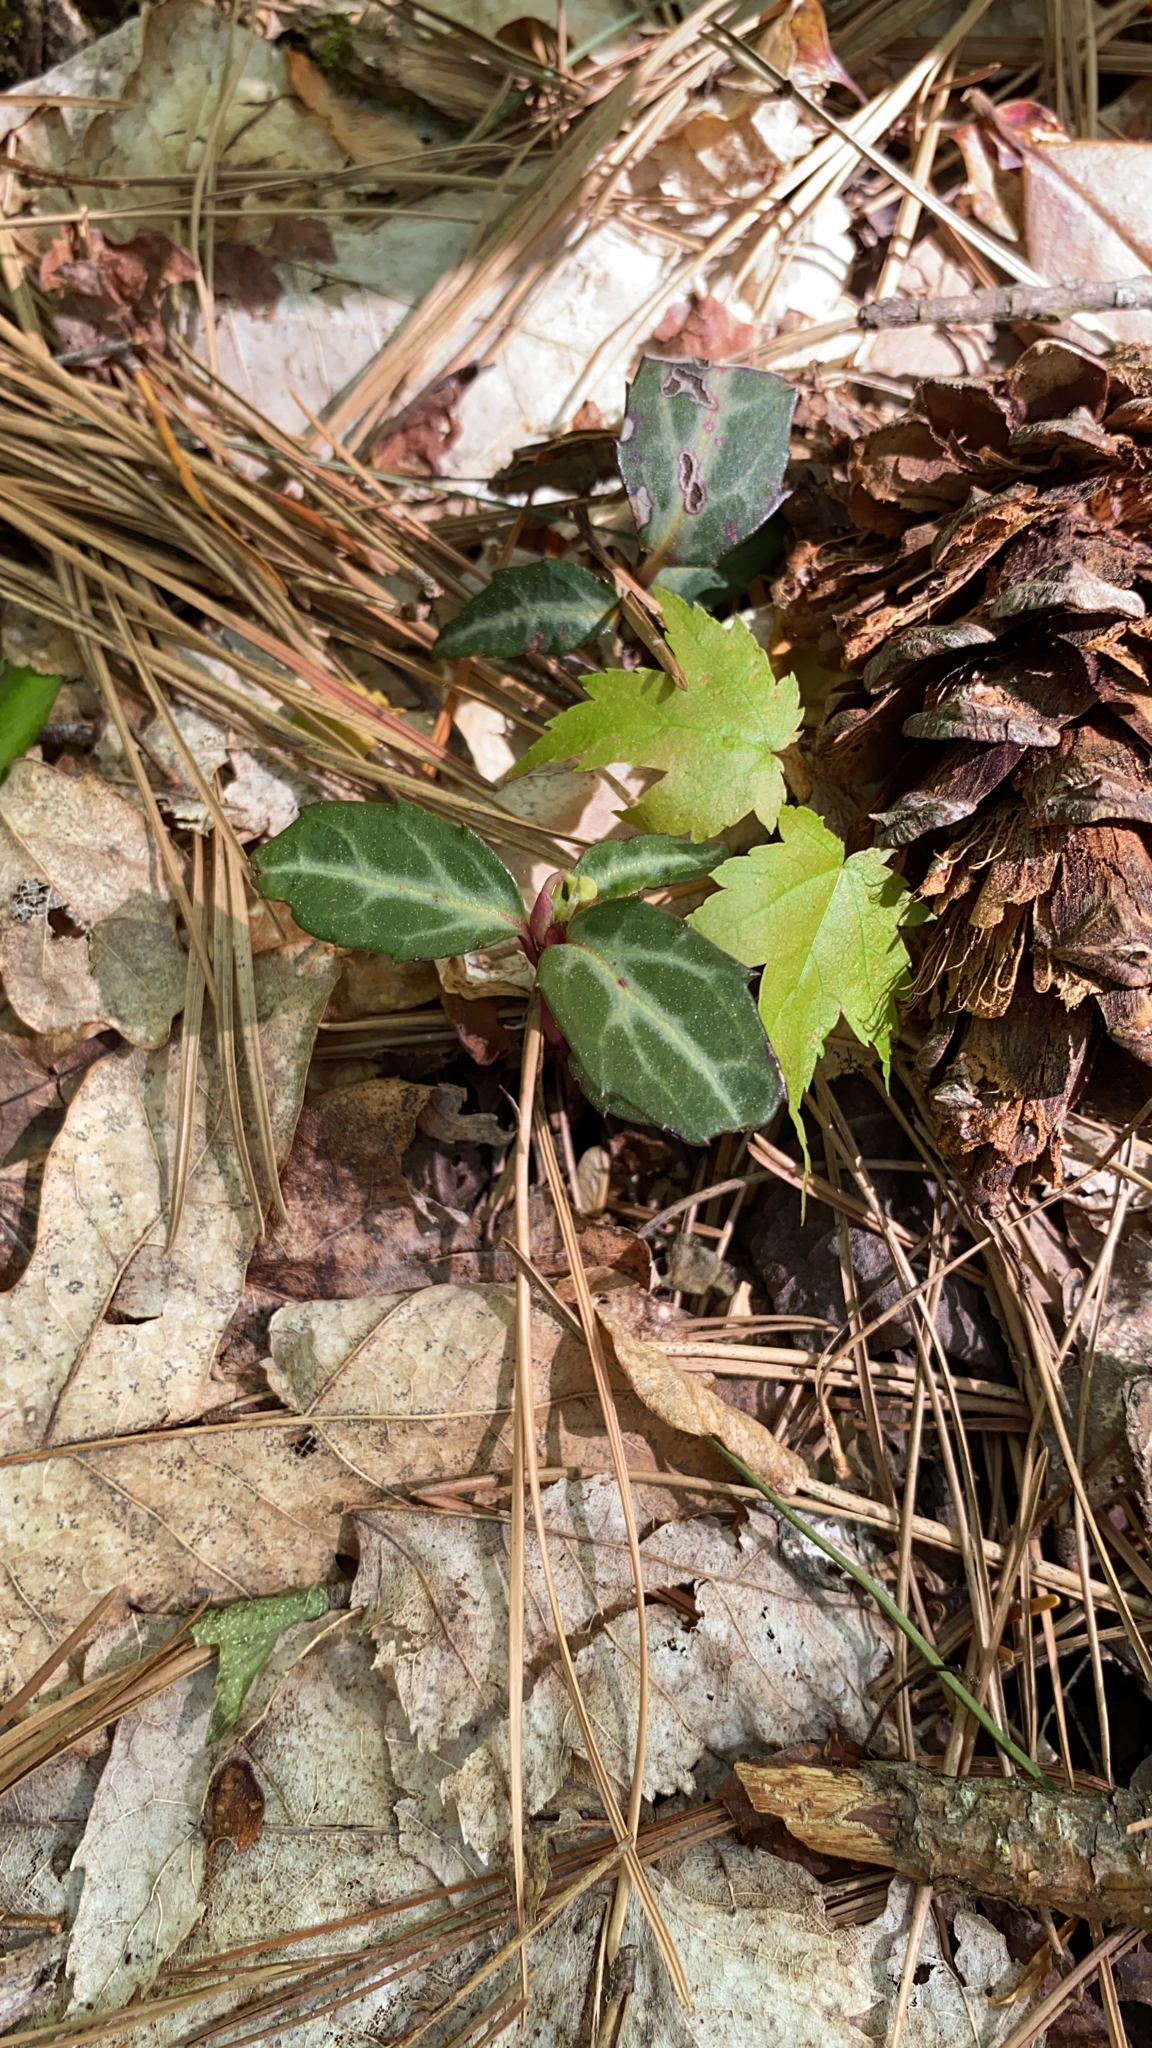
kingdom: Plantae
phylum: Tracheophyta
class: Magnoliopsida
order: Ericales
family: Ericaceae
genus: Chimaphila
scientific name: Chimaphila maculata
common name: Spotted pipsissewa
